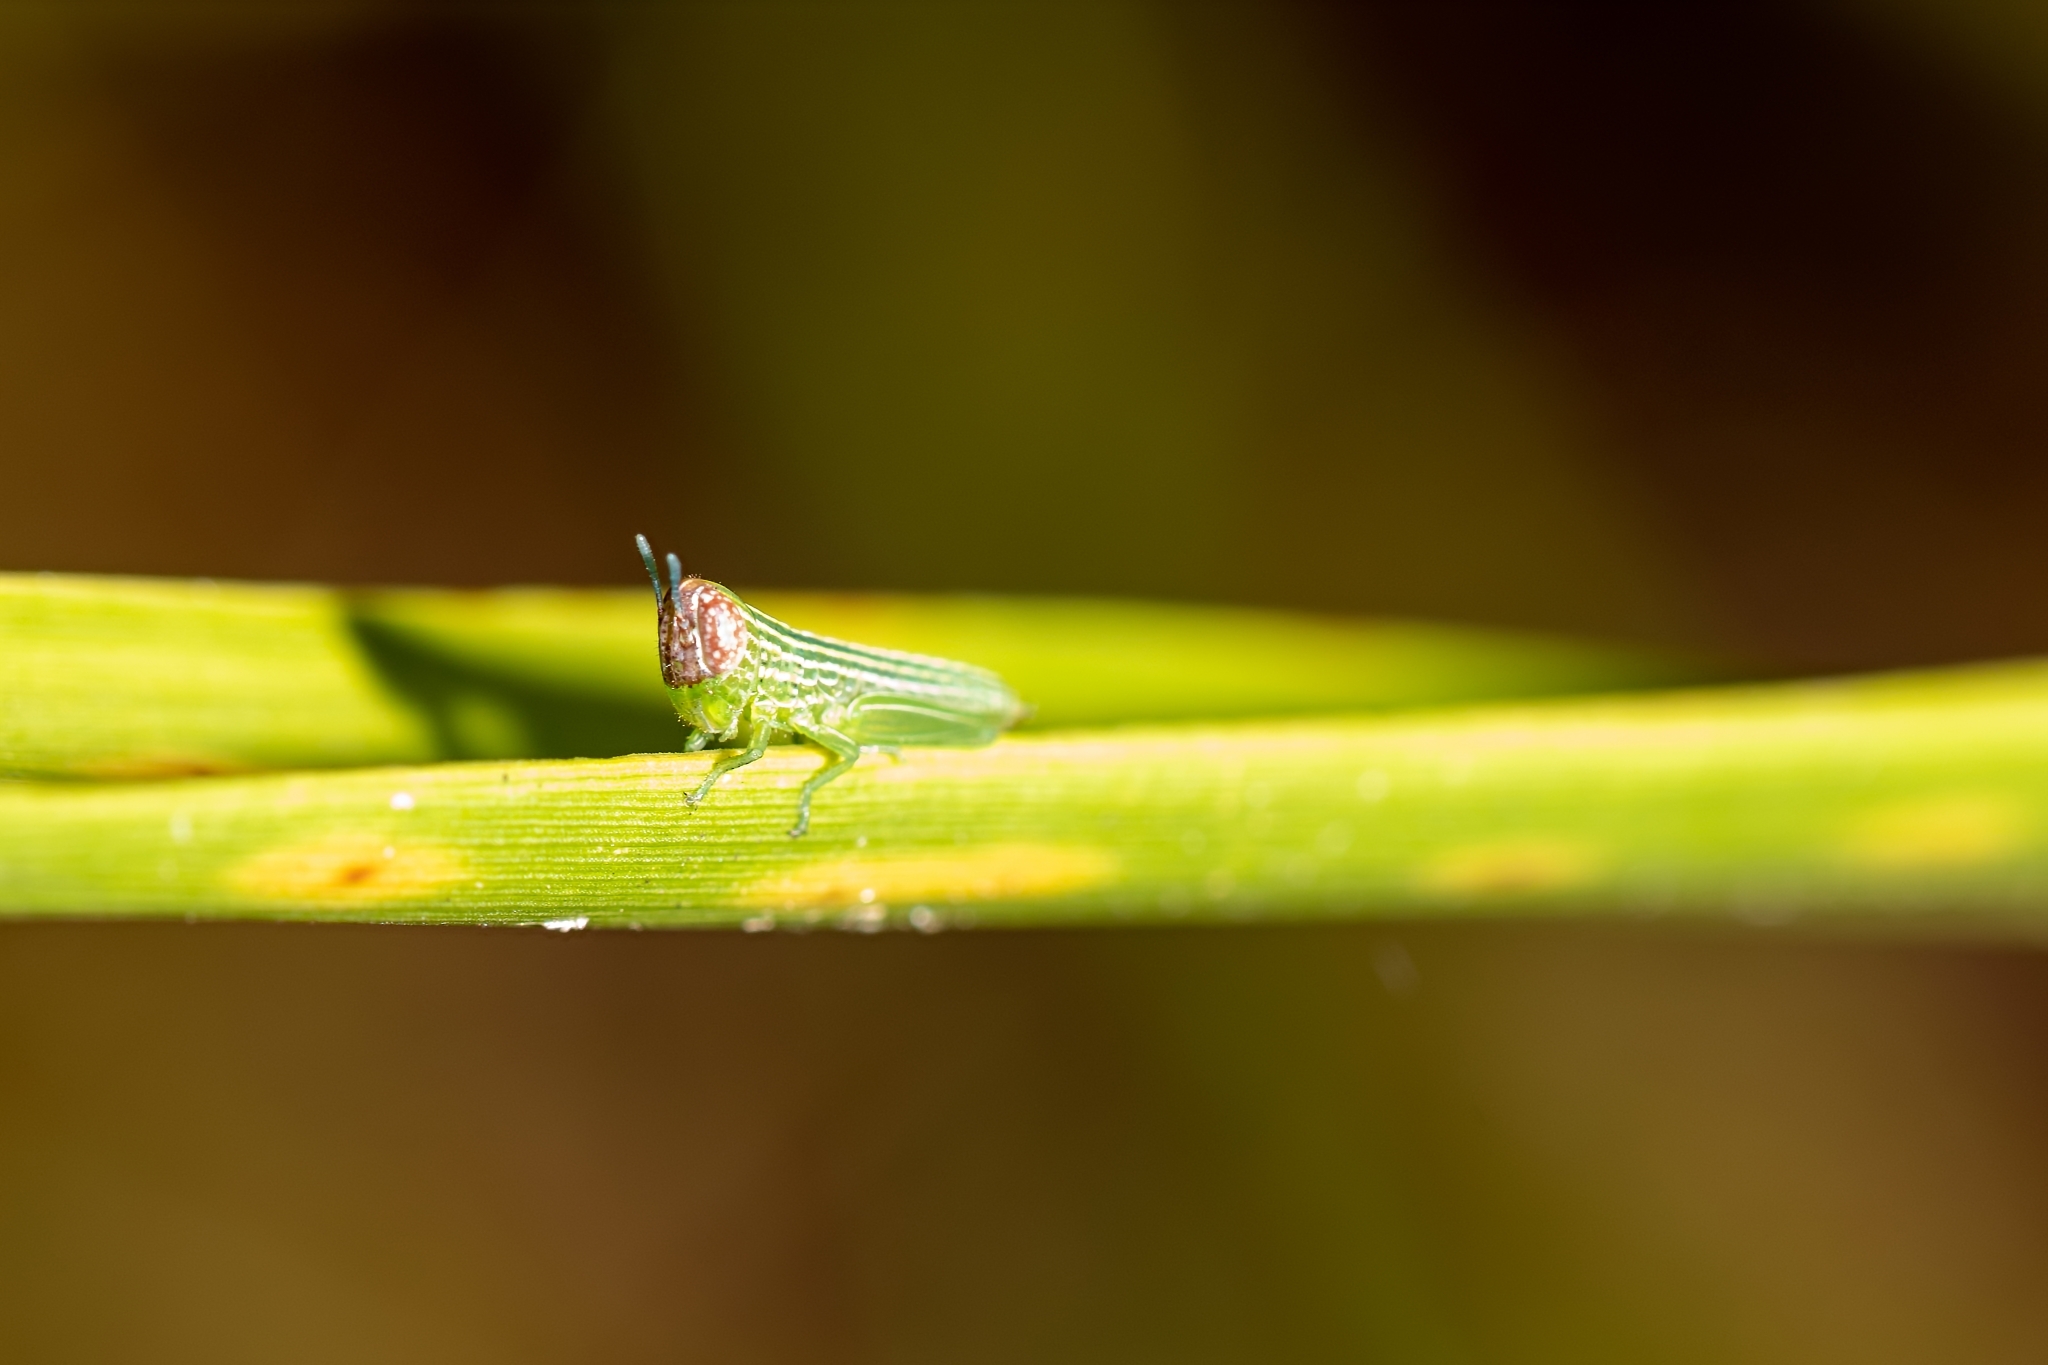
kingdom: Animalia
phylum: Arthropoda
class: Insecta
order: Orthoptera
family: Acrididae
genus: Amblytropidia
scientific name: Amblytropidia mysteca
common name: Brown winter grasshopper
